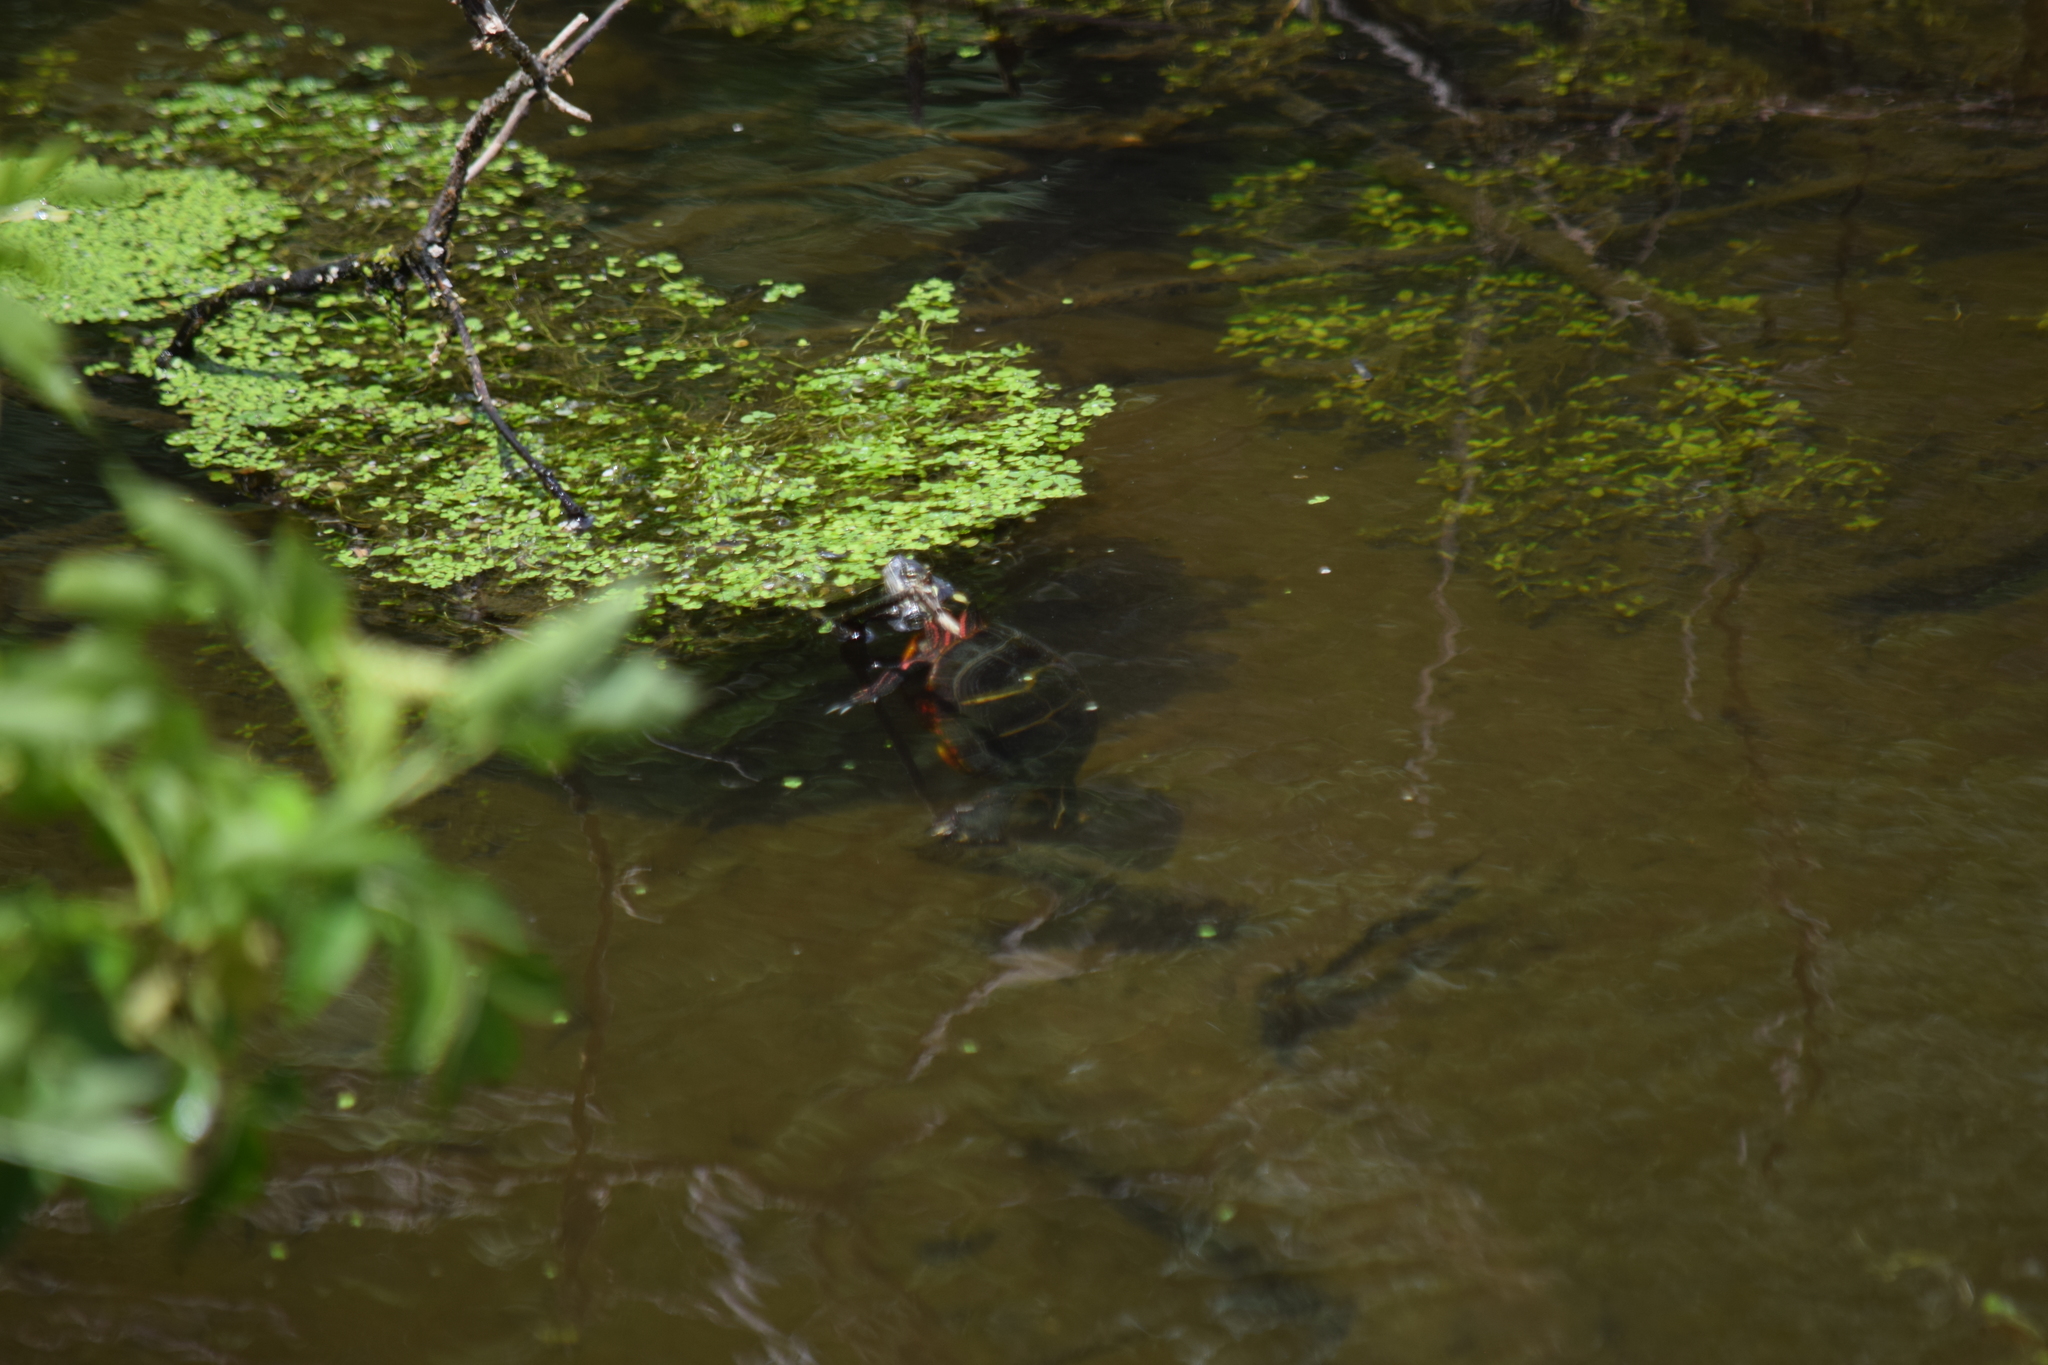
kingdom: Animalia
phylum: Chordata
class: Testudines
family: Emydidae
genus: Chrysemys
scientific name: Chrysemys picta
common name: Painted turtle
